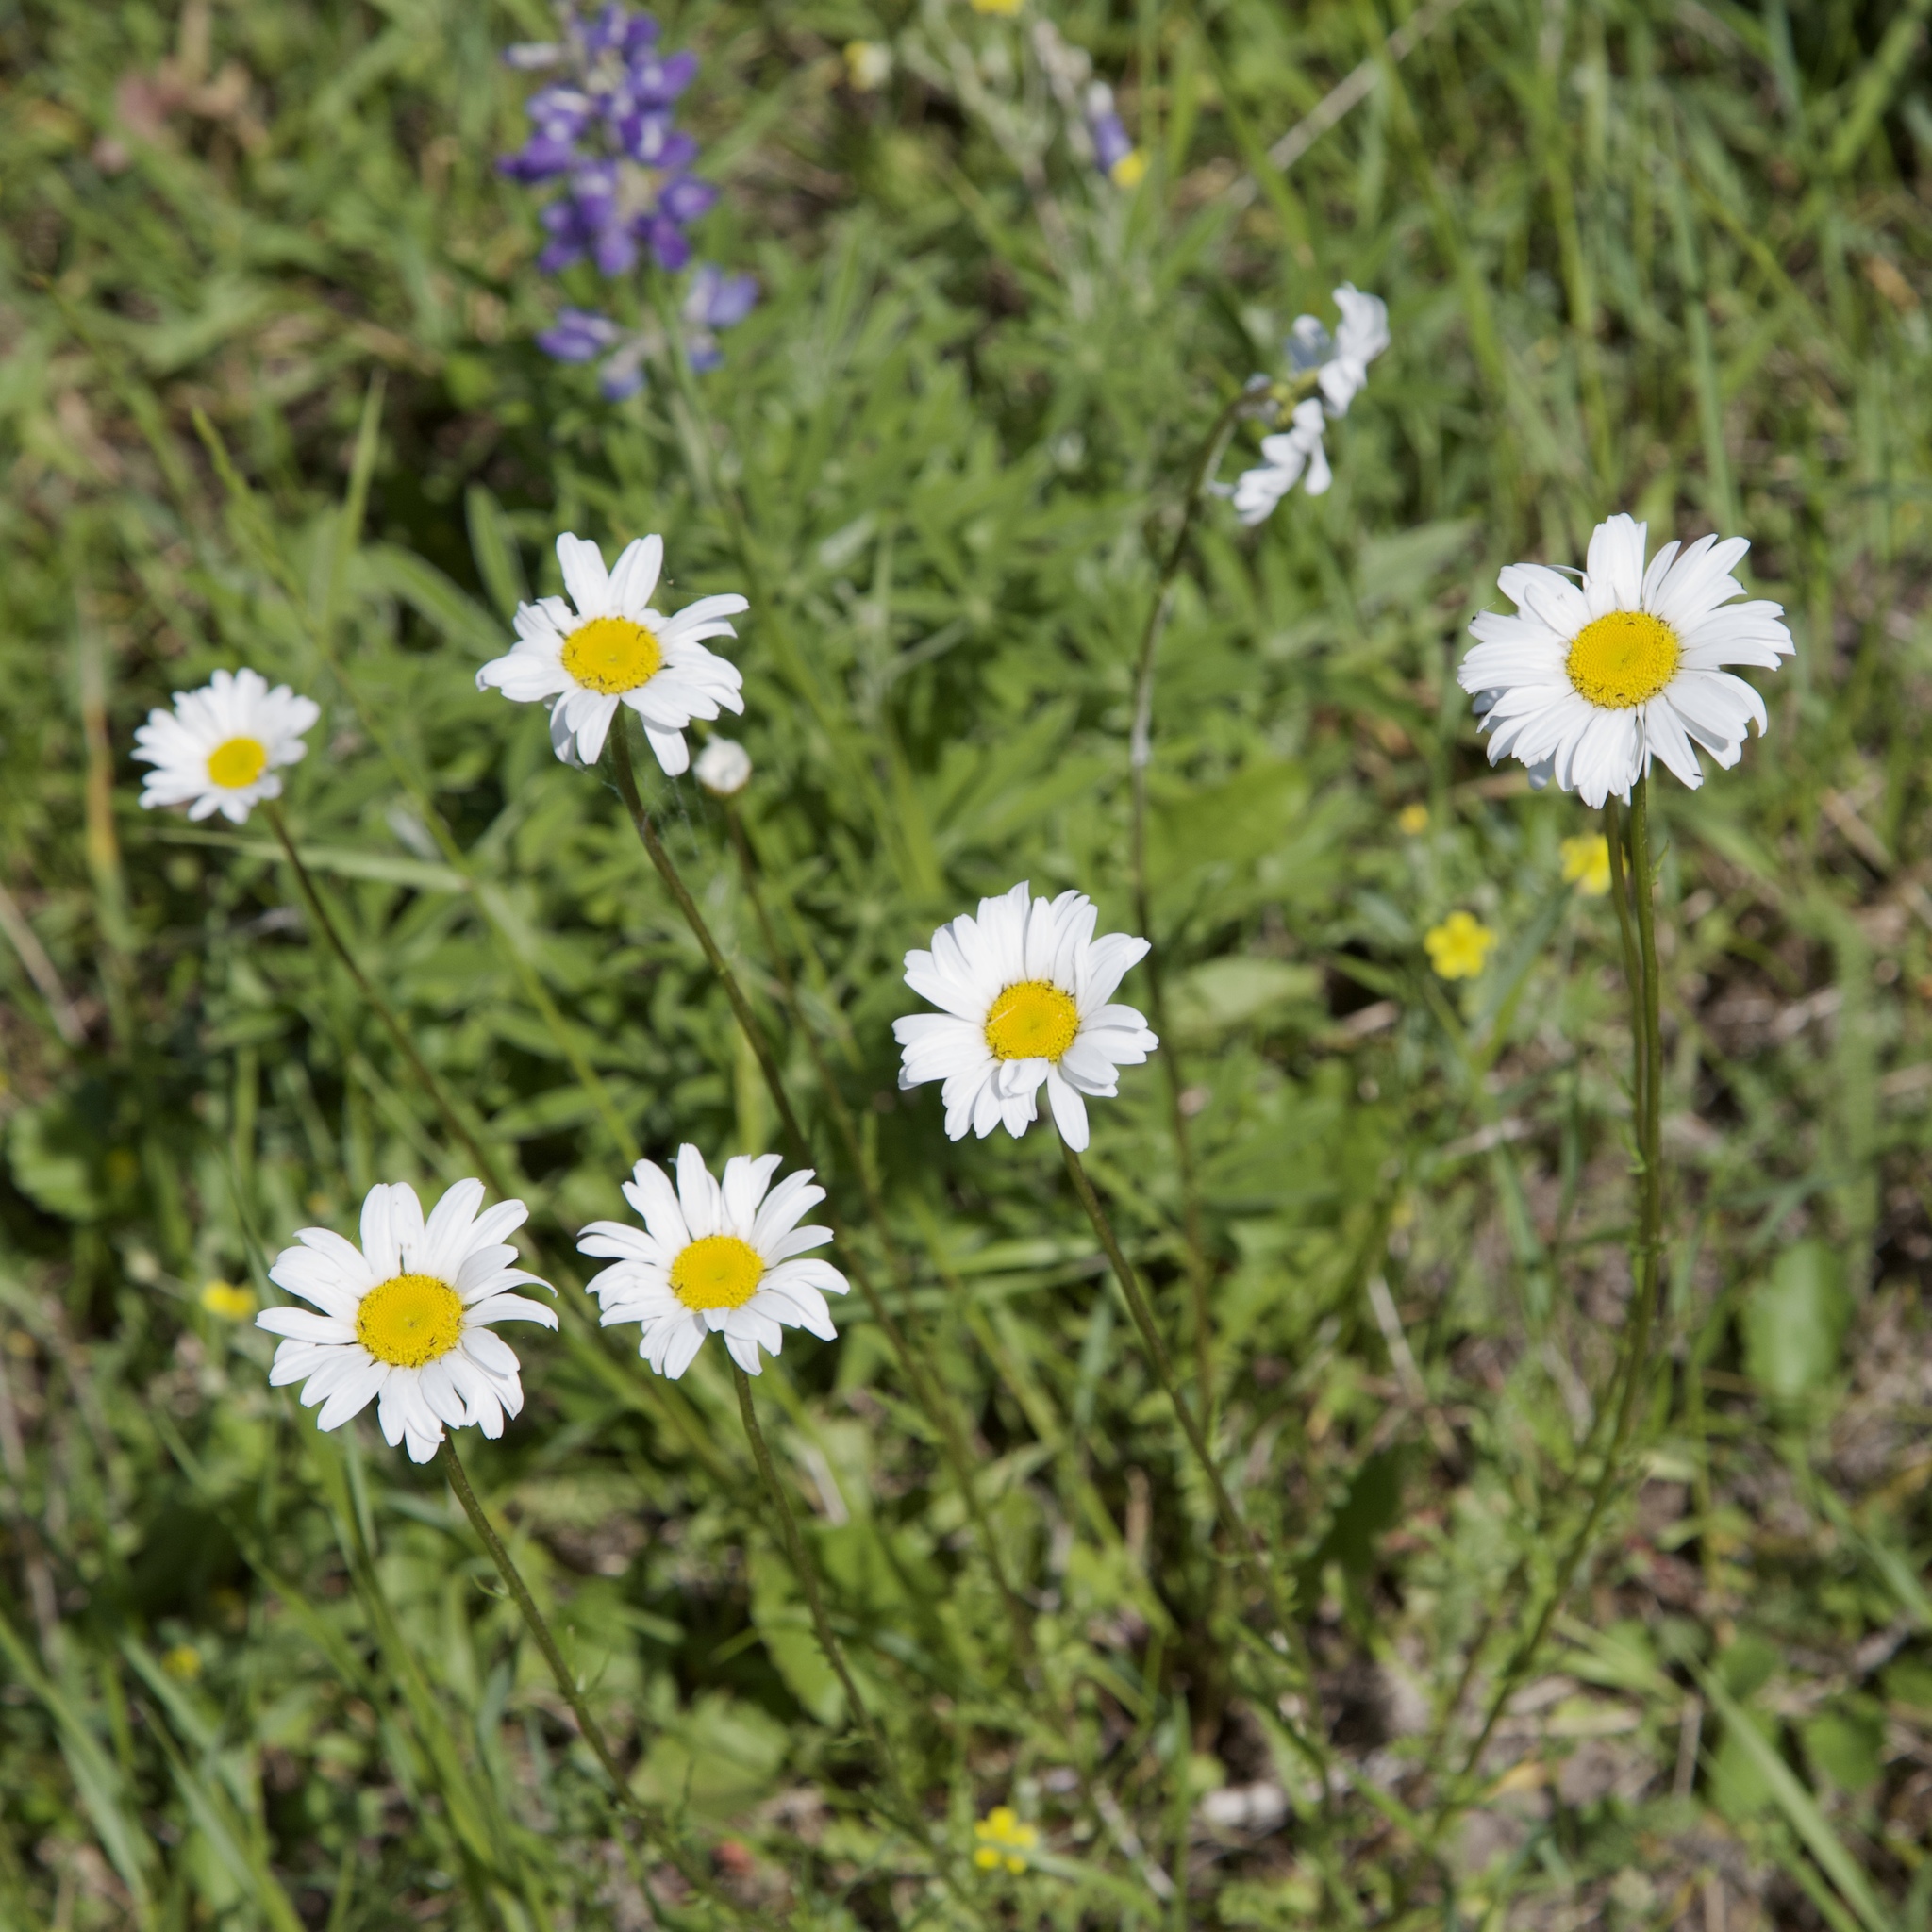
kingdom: Plantae
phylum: Tracheophyta
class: Magnoliopsida
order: Asterales
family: Asteraceae
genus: Leucanthemum
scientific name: Leucanthemum vulgare
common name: Oxeye daisy
